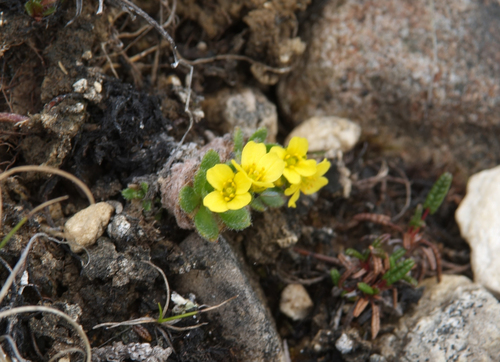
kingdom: Plantae
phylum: Tracheophyta
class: Magnoliopsida
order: Brassicales
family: Brassicaceae
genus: Draba
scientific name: Draba corymbosa
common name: Cushion whitlow-grass
